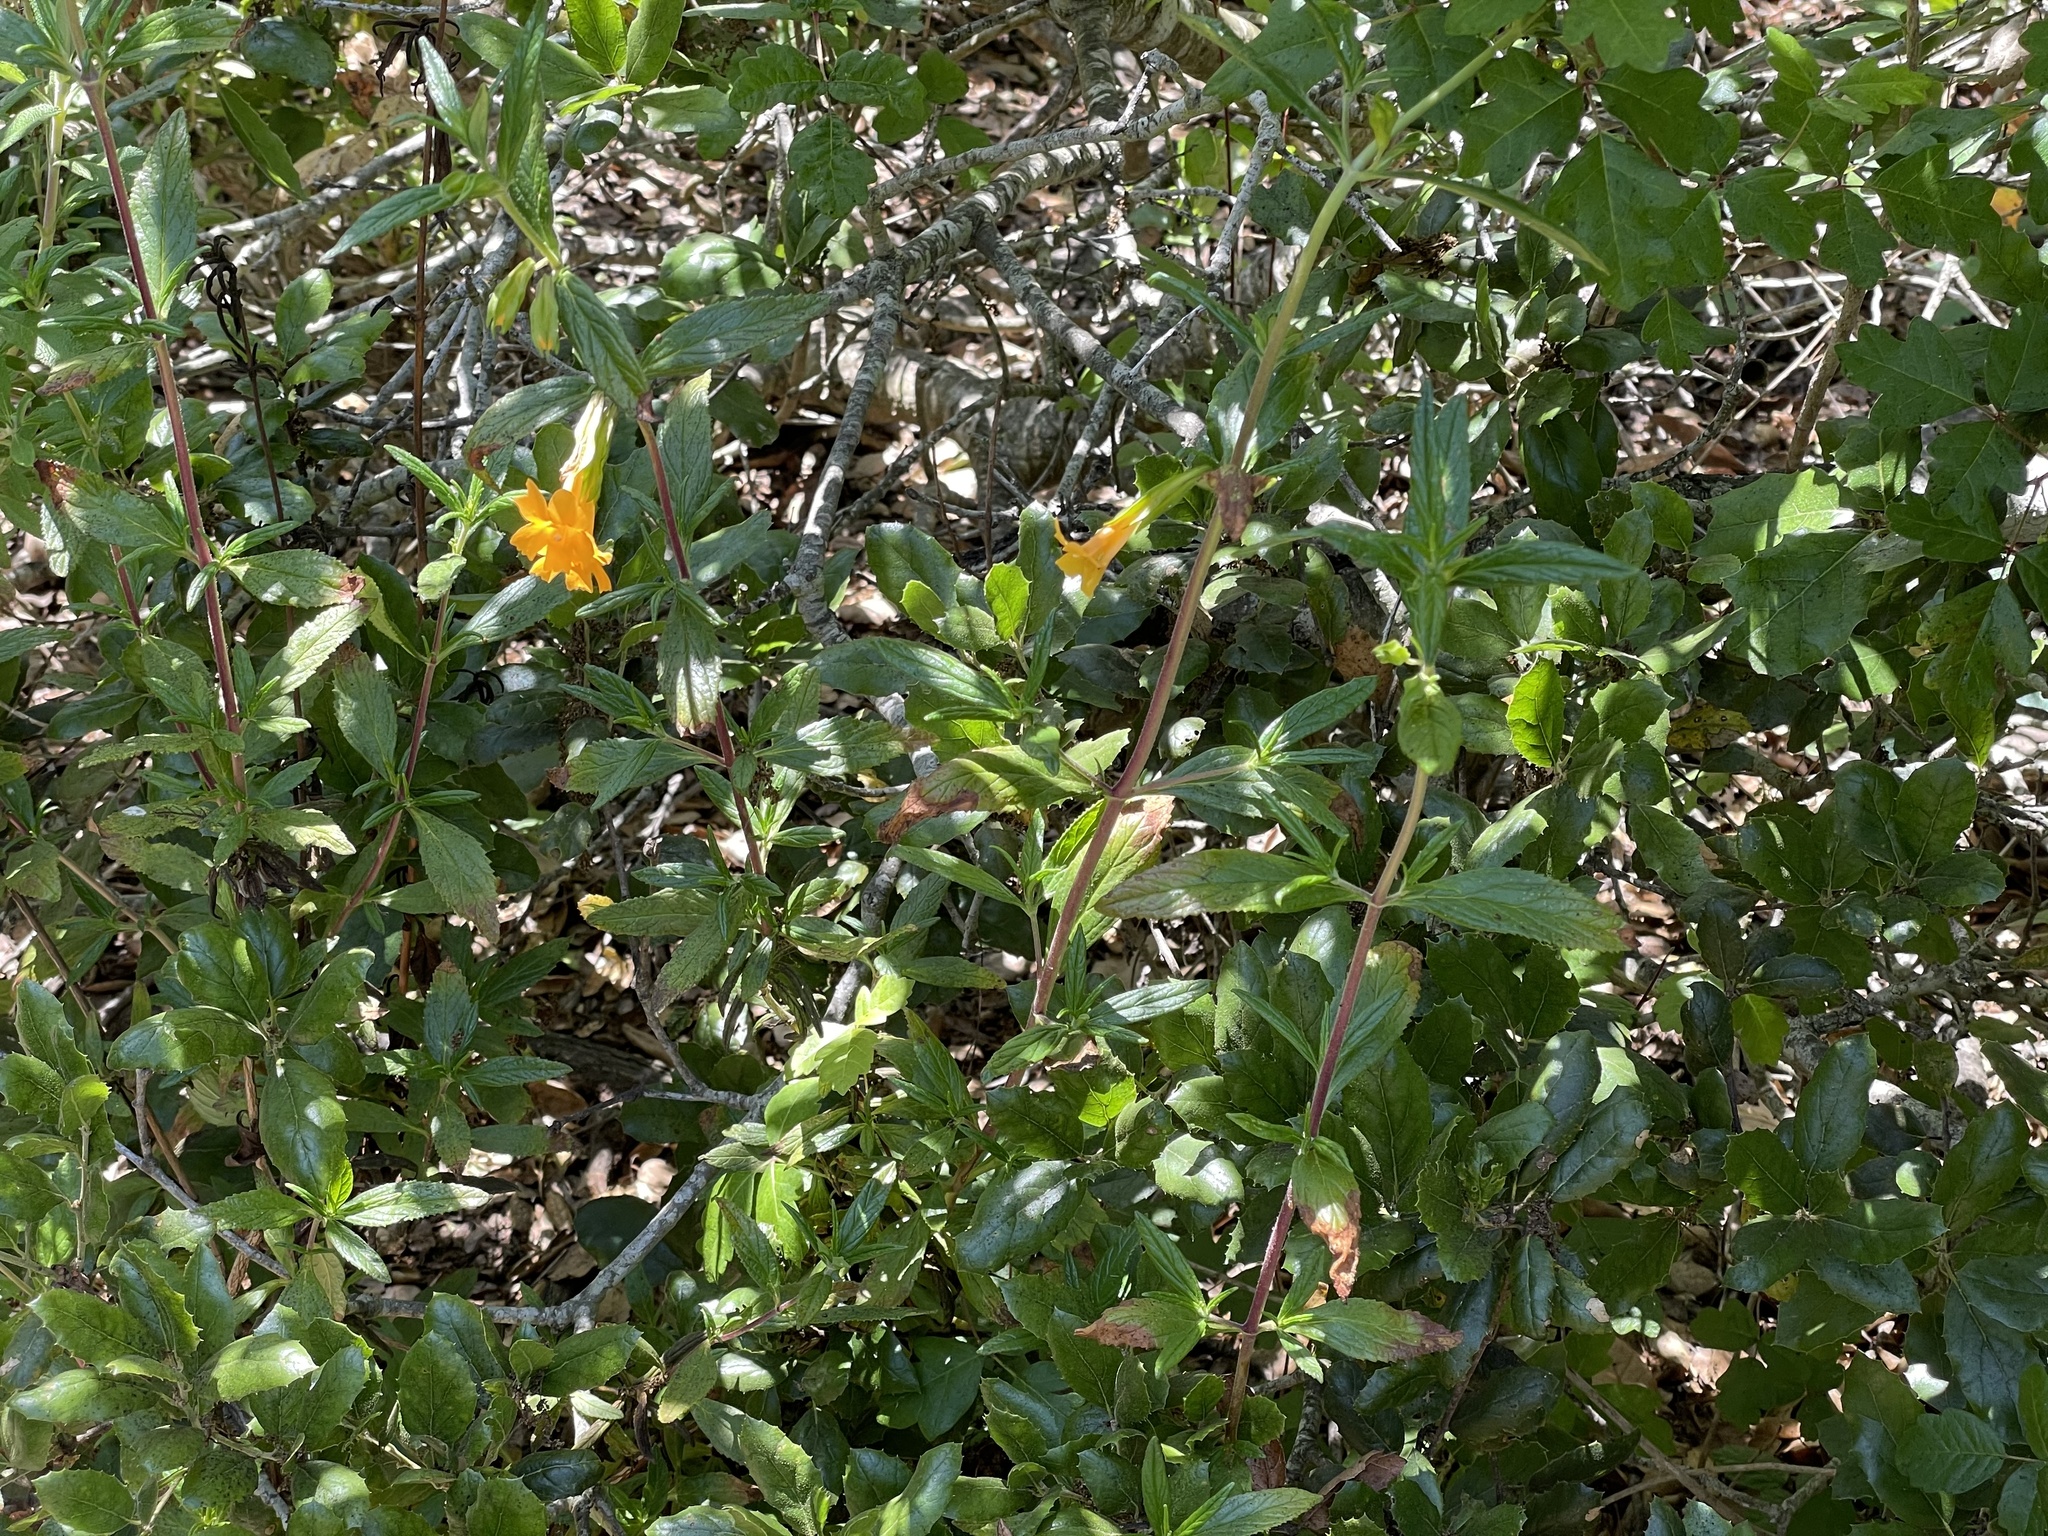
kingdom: Plantae
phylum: Tracheophyta
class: Magnoliopsida
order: Lamiales
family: Phrymaceae
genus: Diplacus
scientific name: Diplacus aurantiacus
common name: Bush monkey-flower
